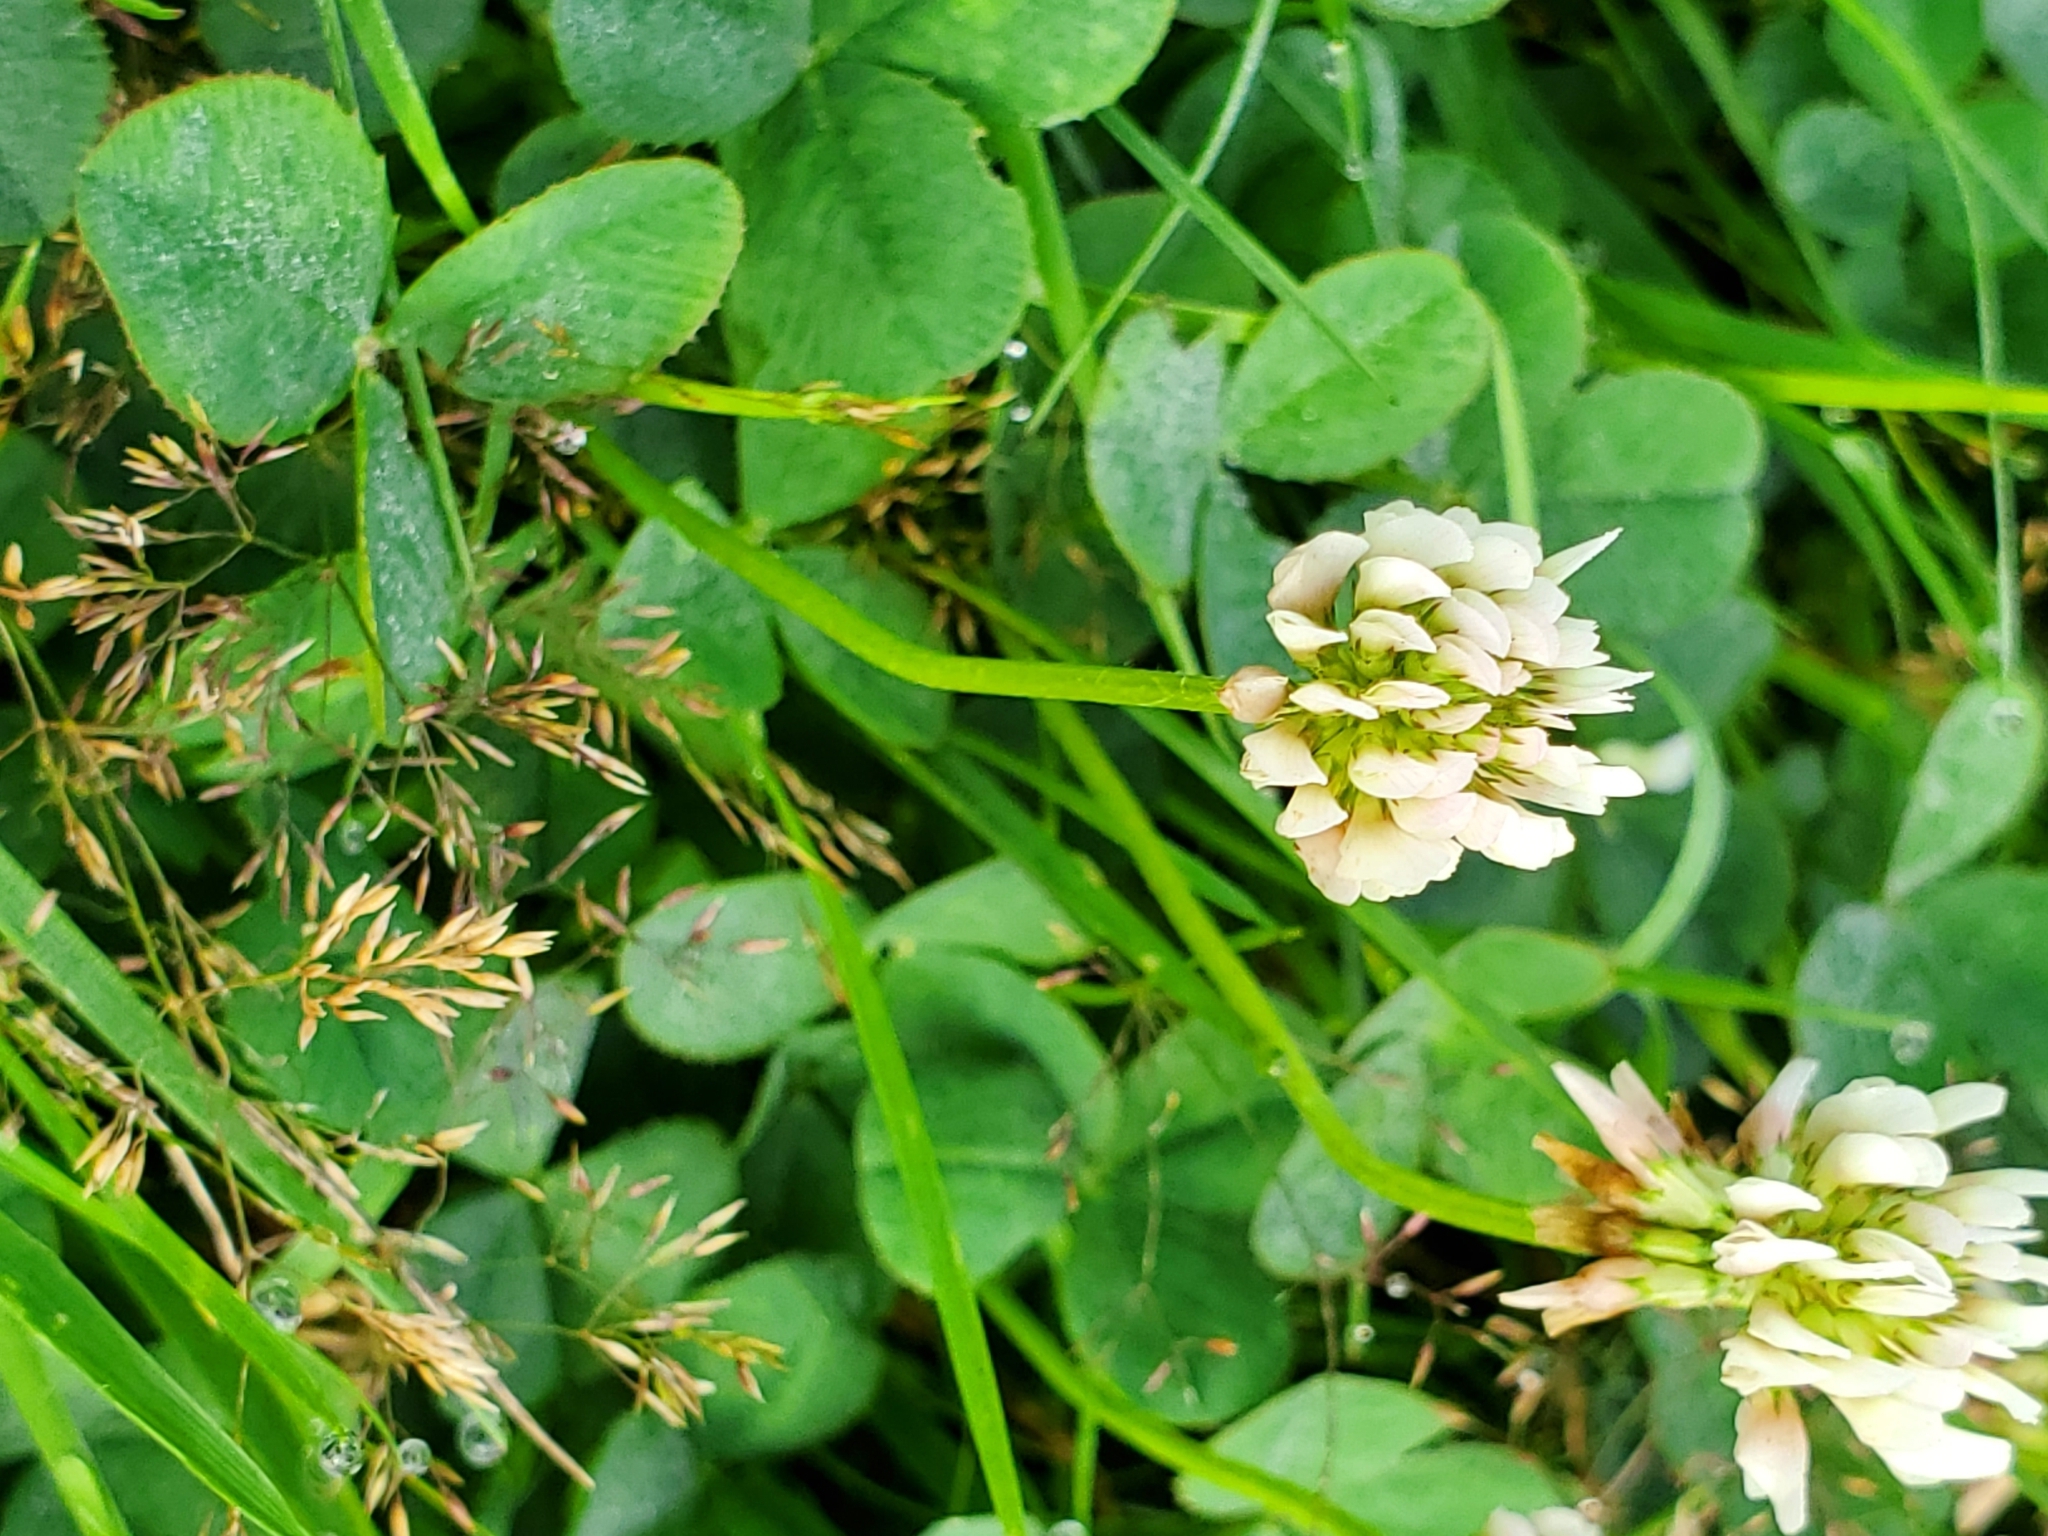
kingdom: Plantae
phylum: Tracheophyta
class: Magnoliopsida
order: Fabales
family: Fabaceae
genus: Trifolium
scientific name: Trifolium repens
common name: White clover
